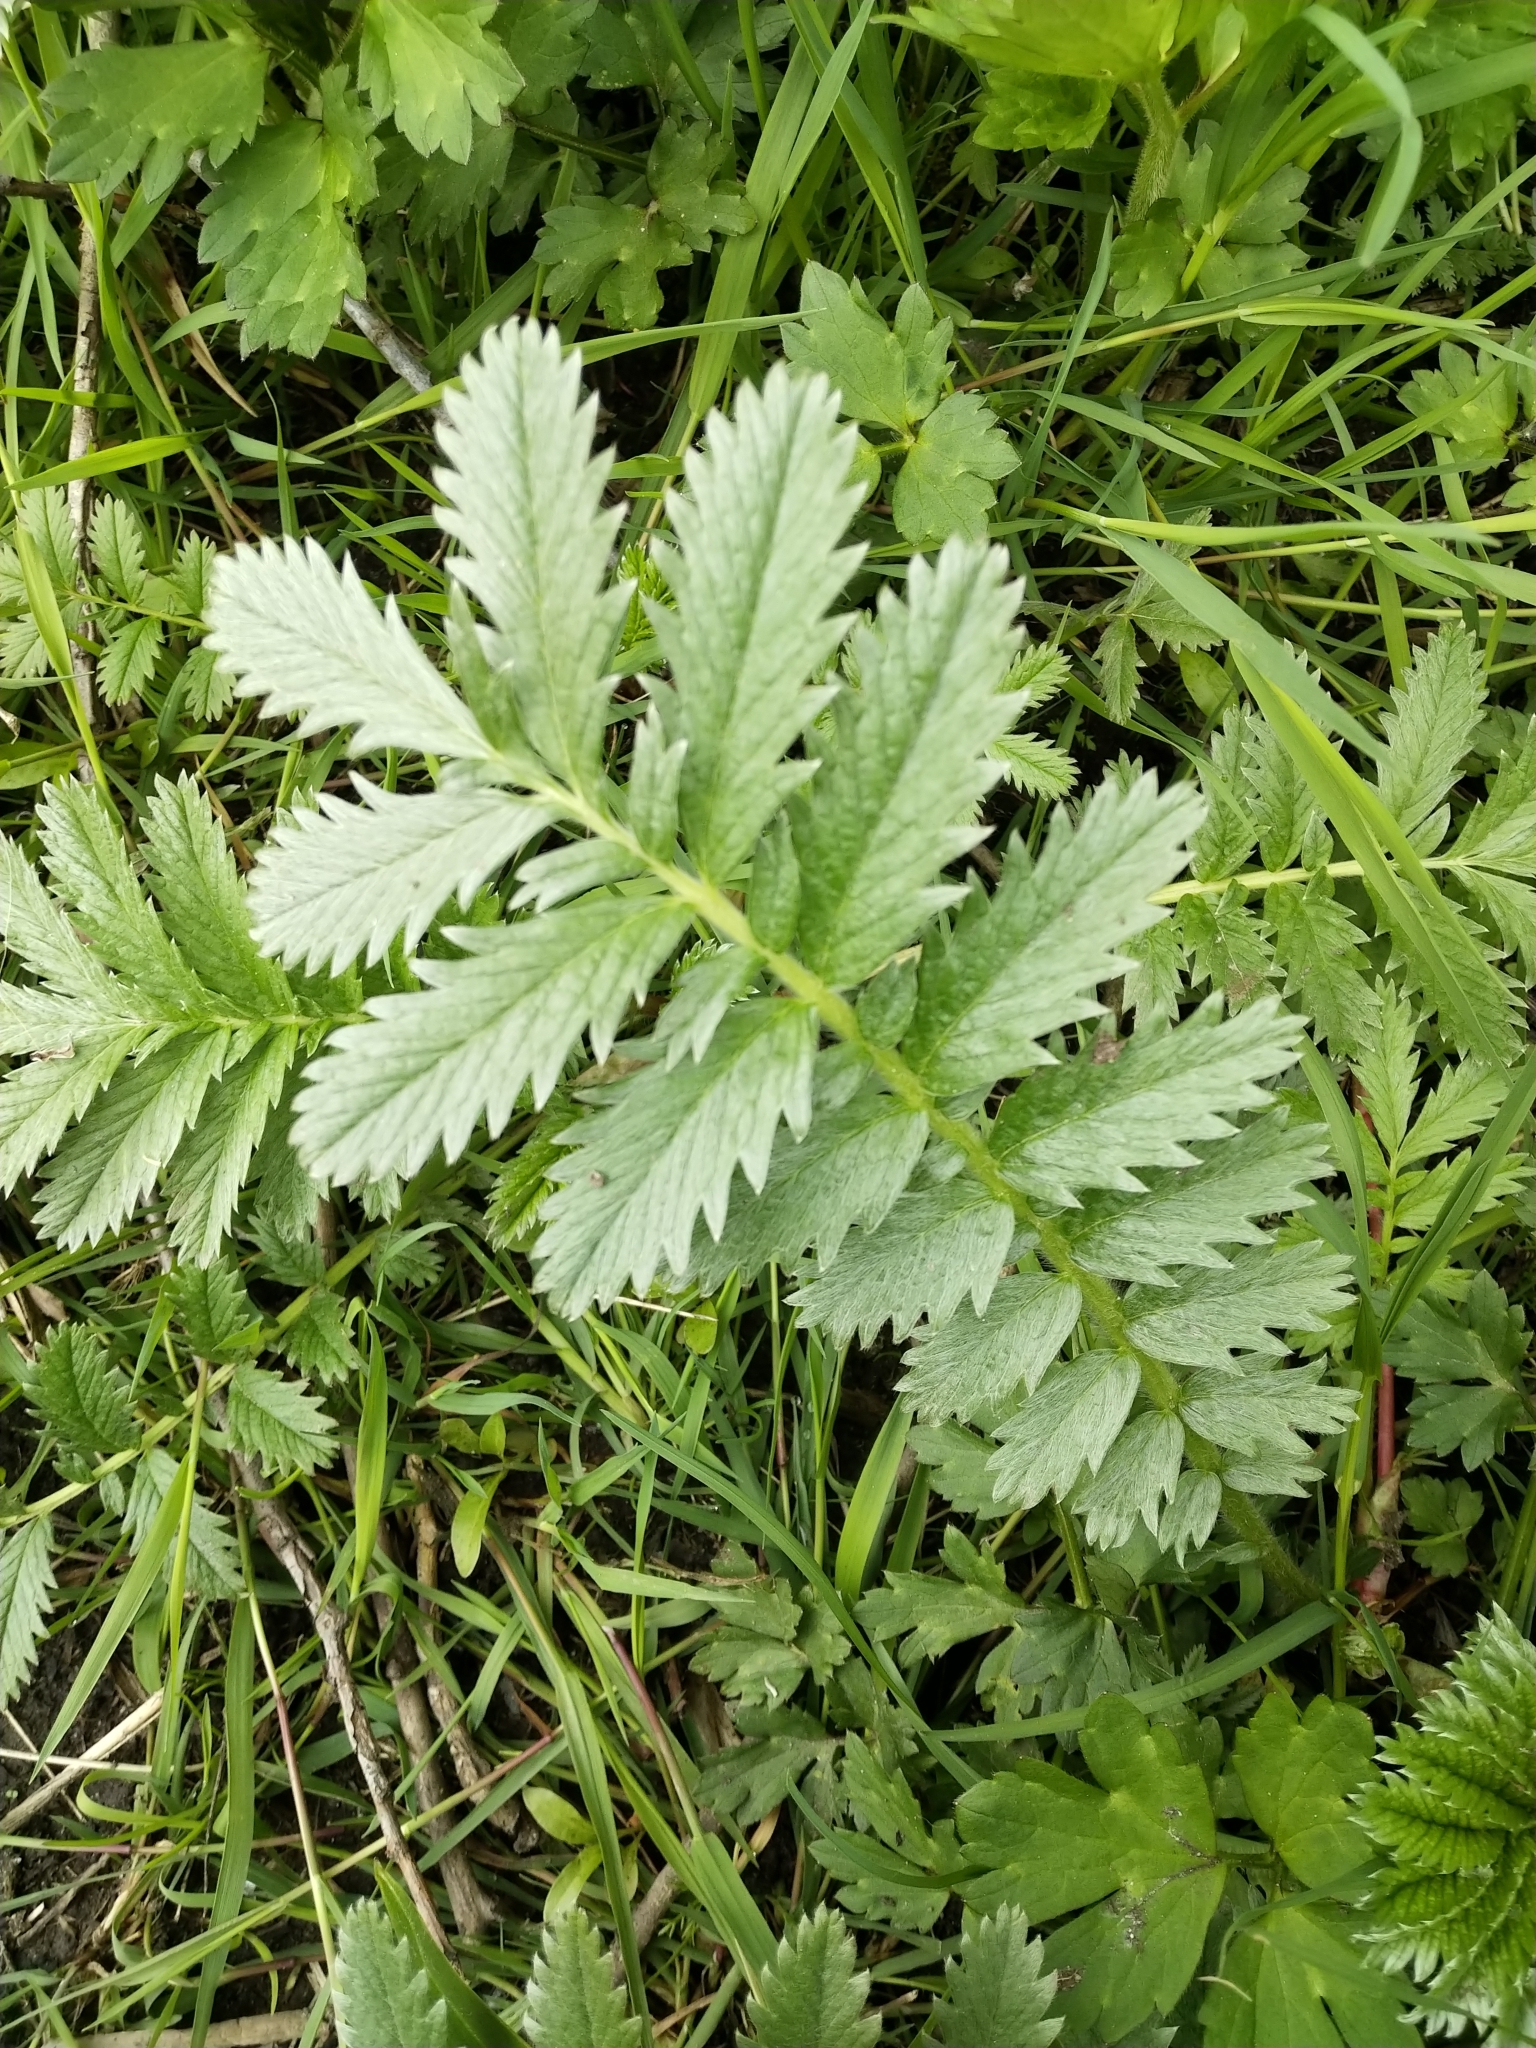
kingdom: Plantae
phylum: Tracheophyta
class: Magnoliopsida
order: Rosales
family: Rosaceae
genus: Argentina
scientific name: Argentina anserina
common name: Common silverweed
